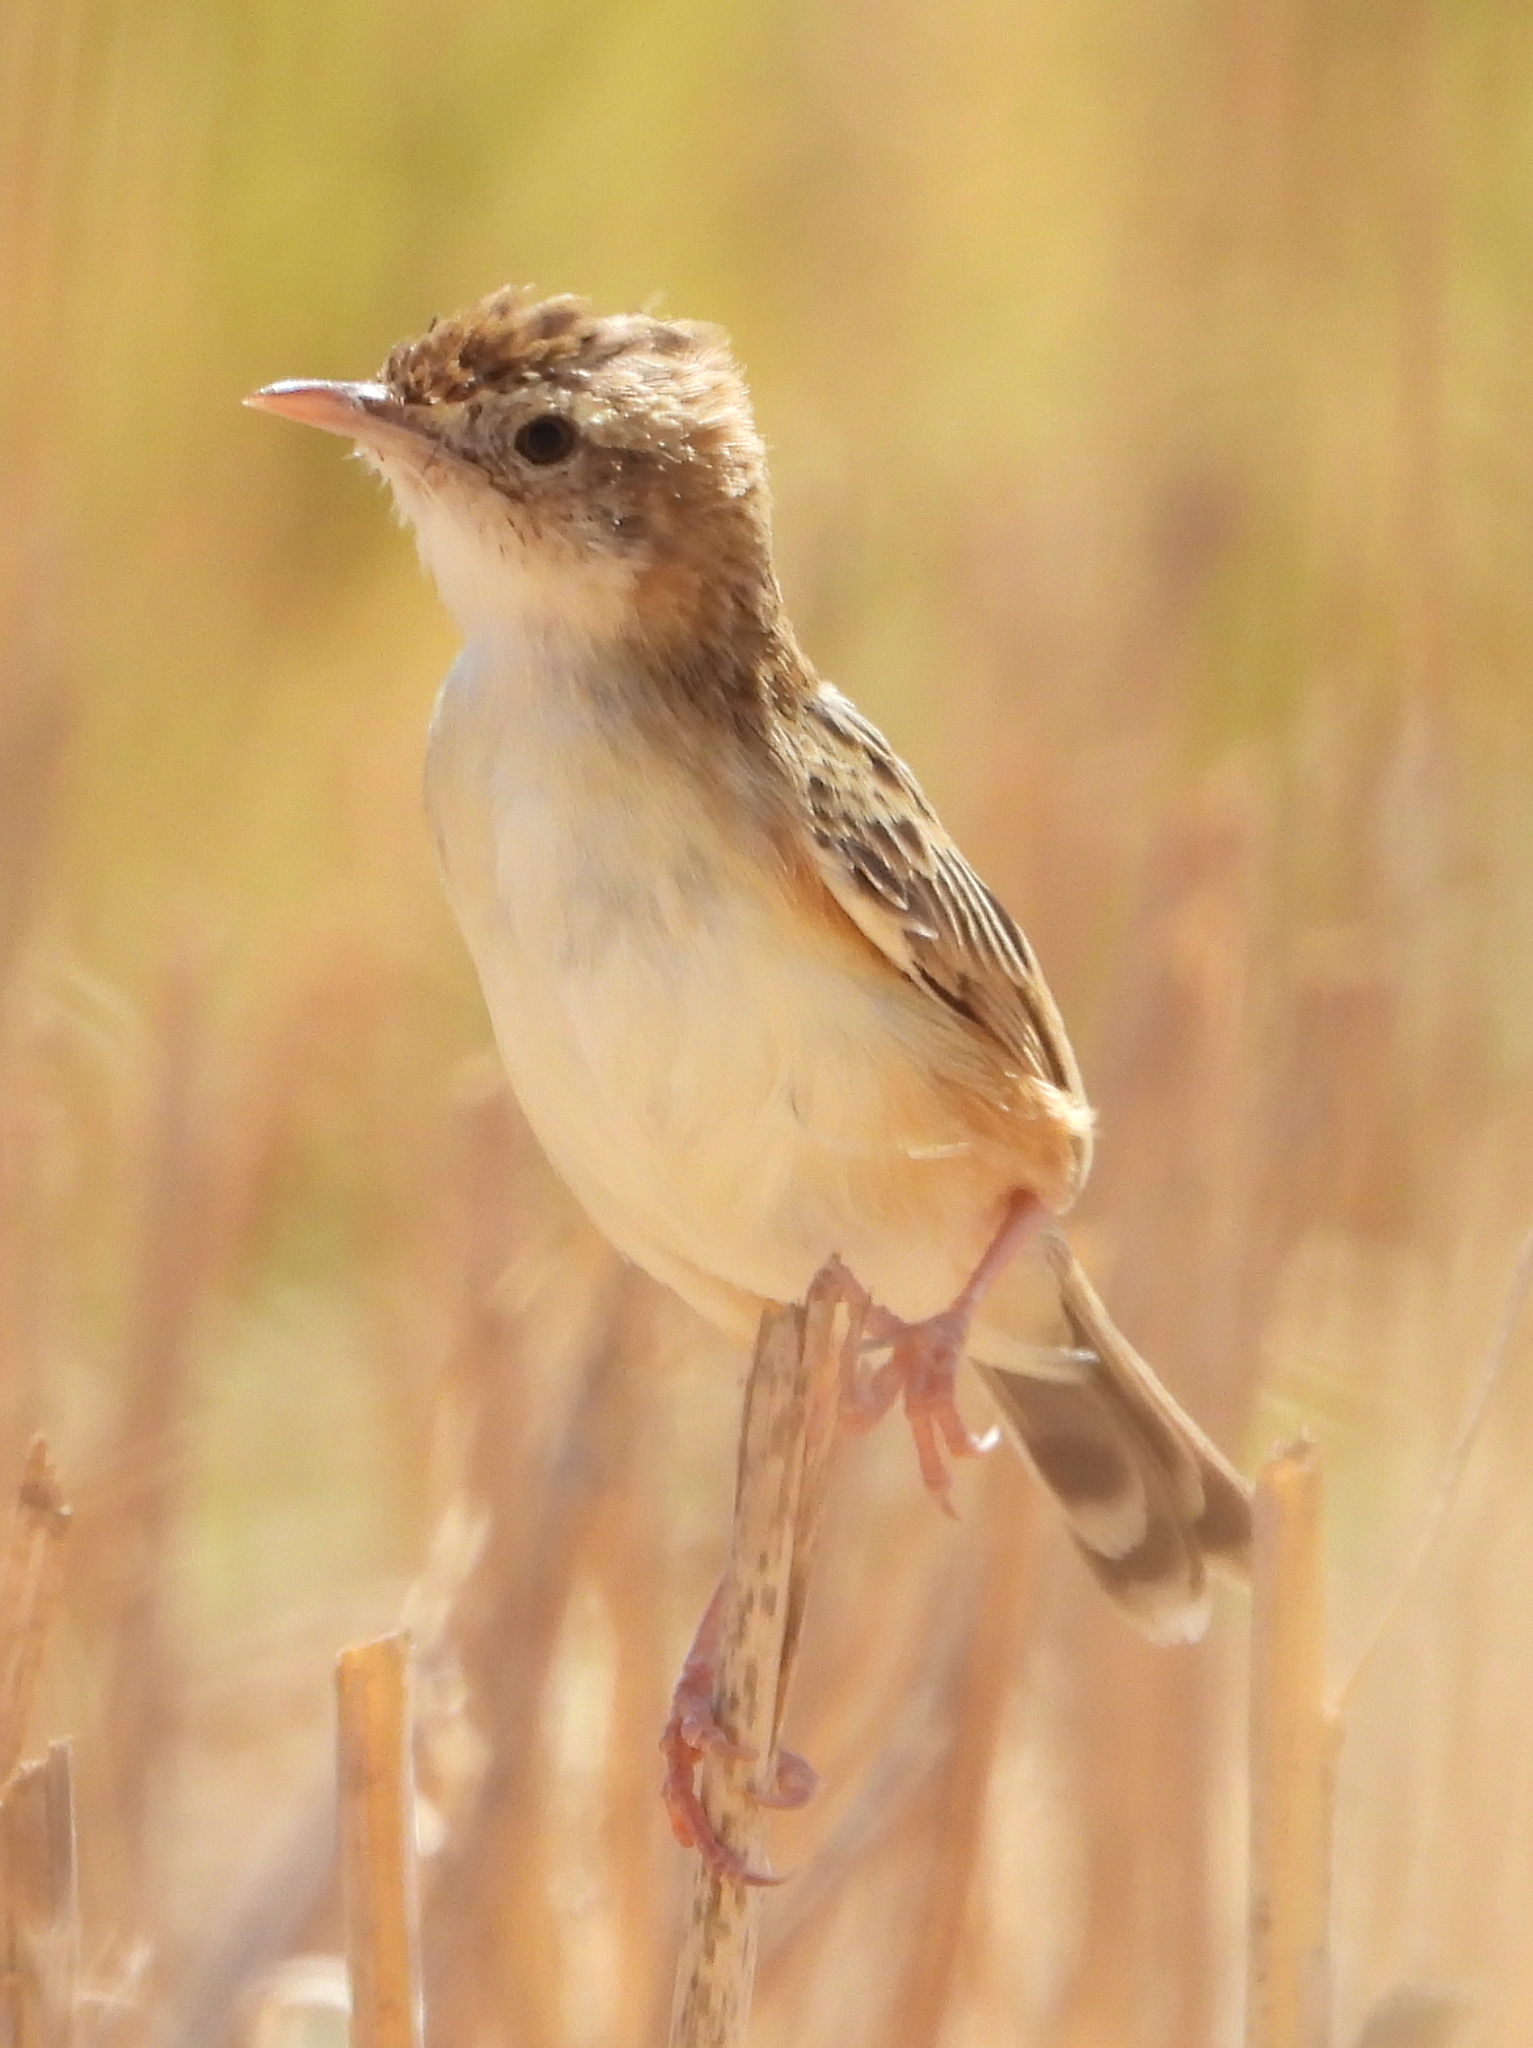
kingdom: Animalia
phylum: Chordata
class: Aves
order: Passeriformes
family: Cisticolidae
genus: Cisticola
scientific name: Cisticola juncidis
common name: Zitting cisticola
